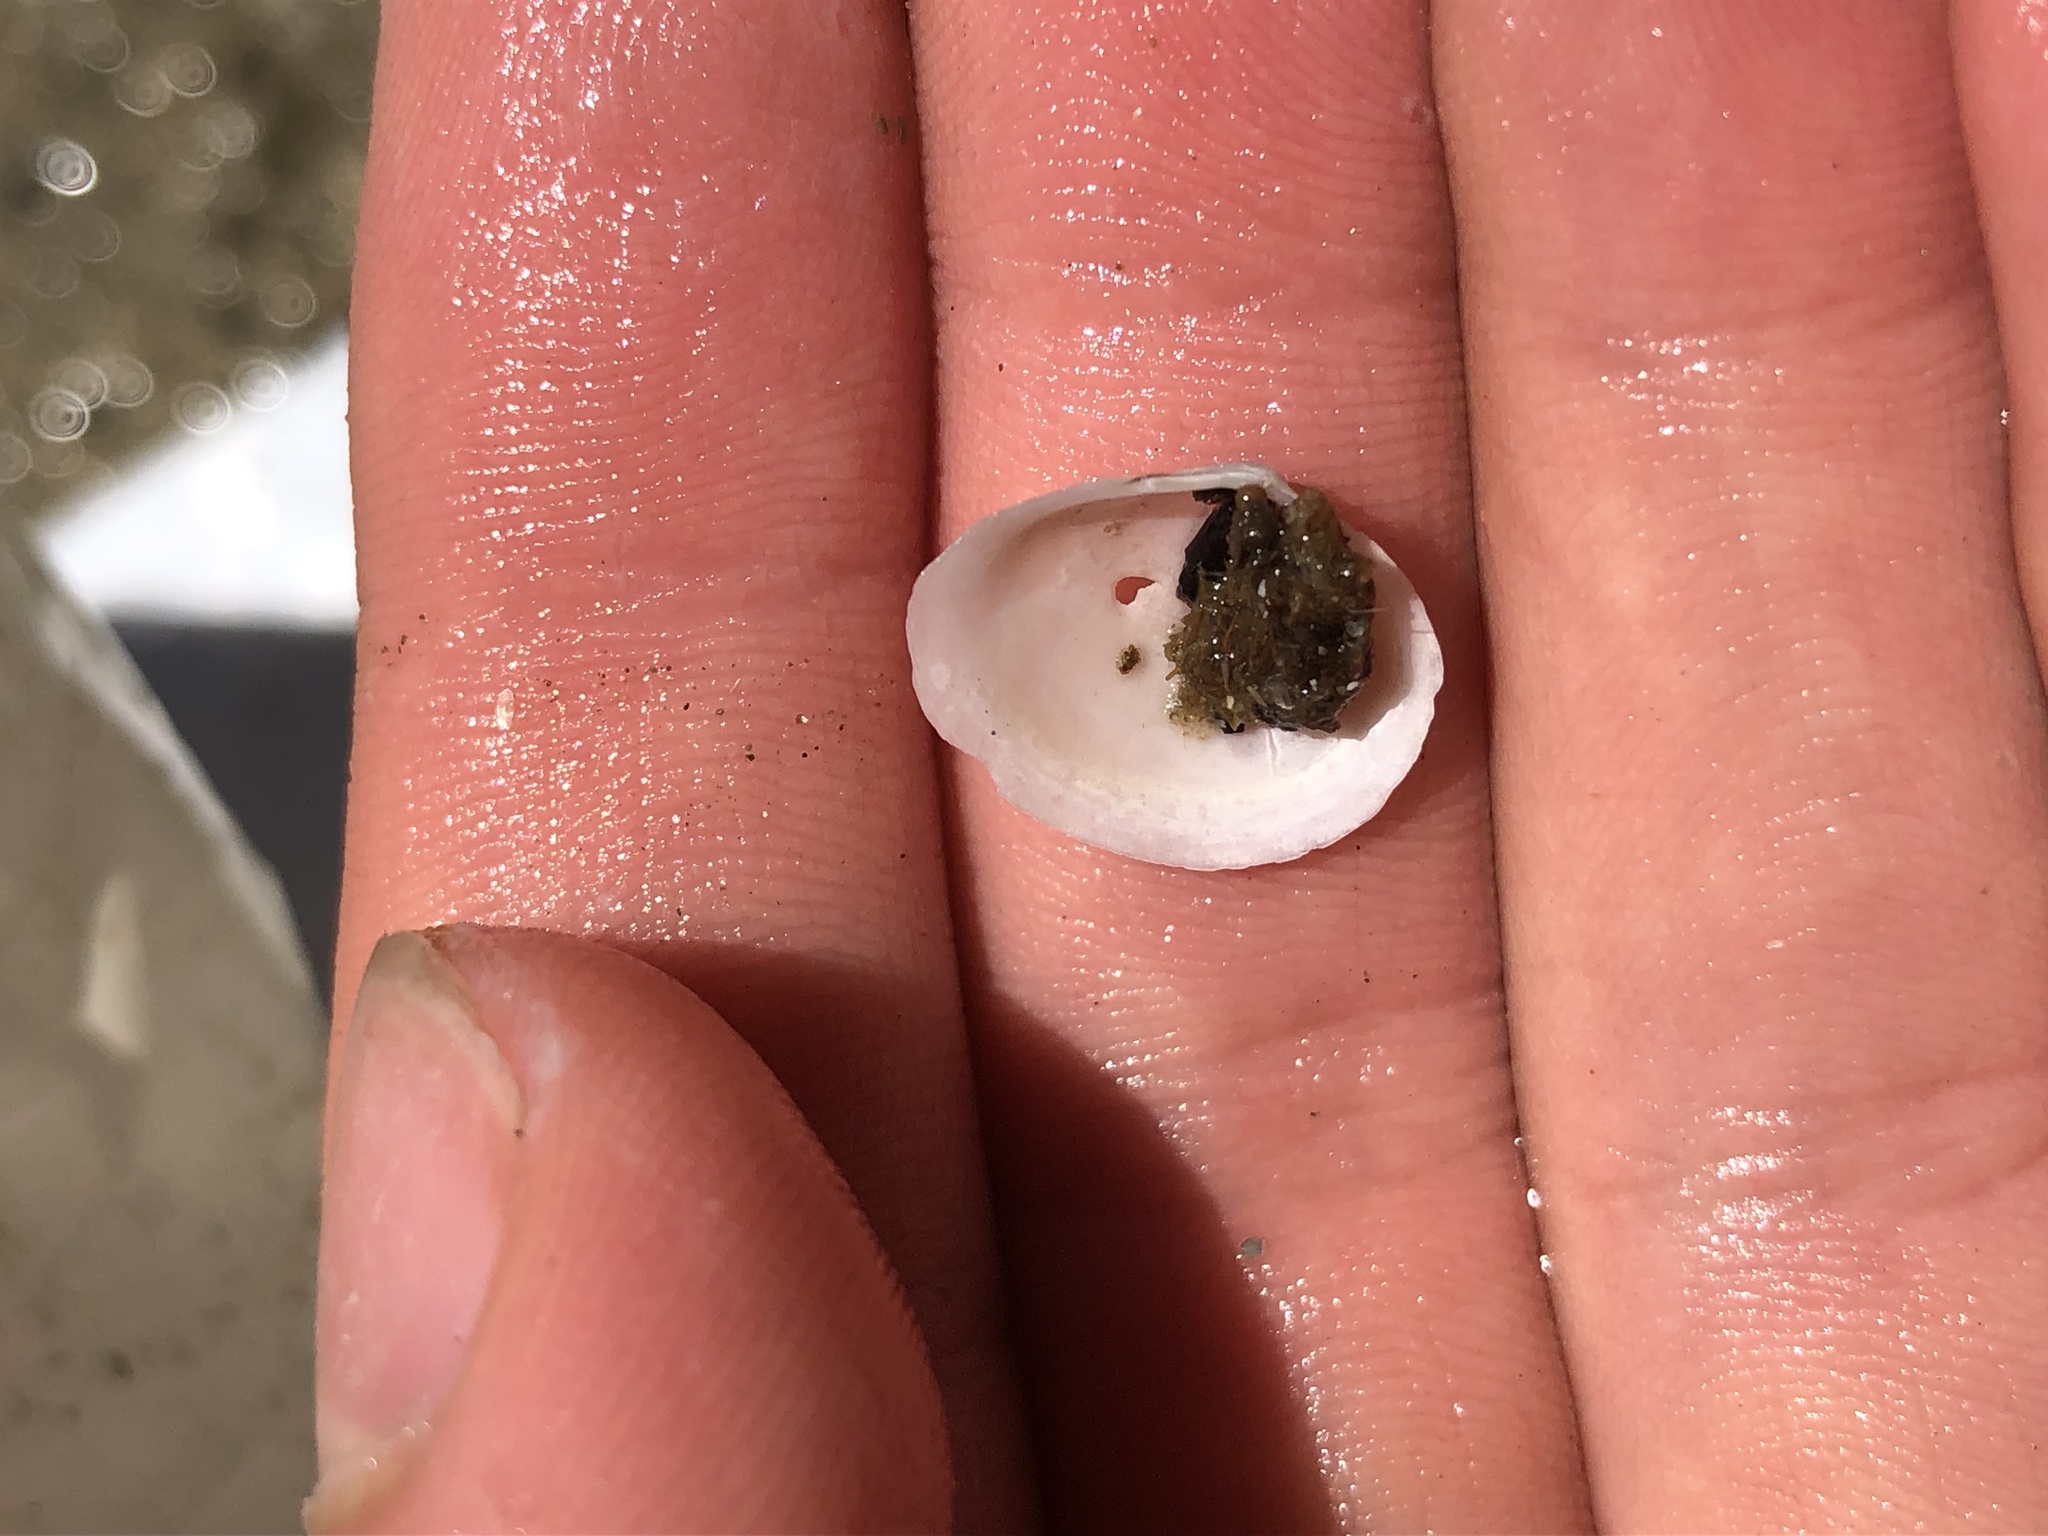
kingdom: Animalia
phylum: Mollusca
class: Bivalvia
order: Cardiida
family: Tellinidae
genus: Macoma
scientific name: Macoma petalum
